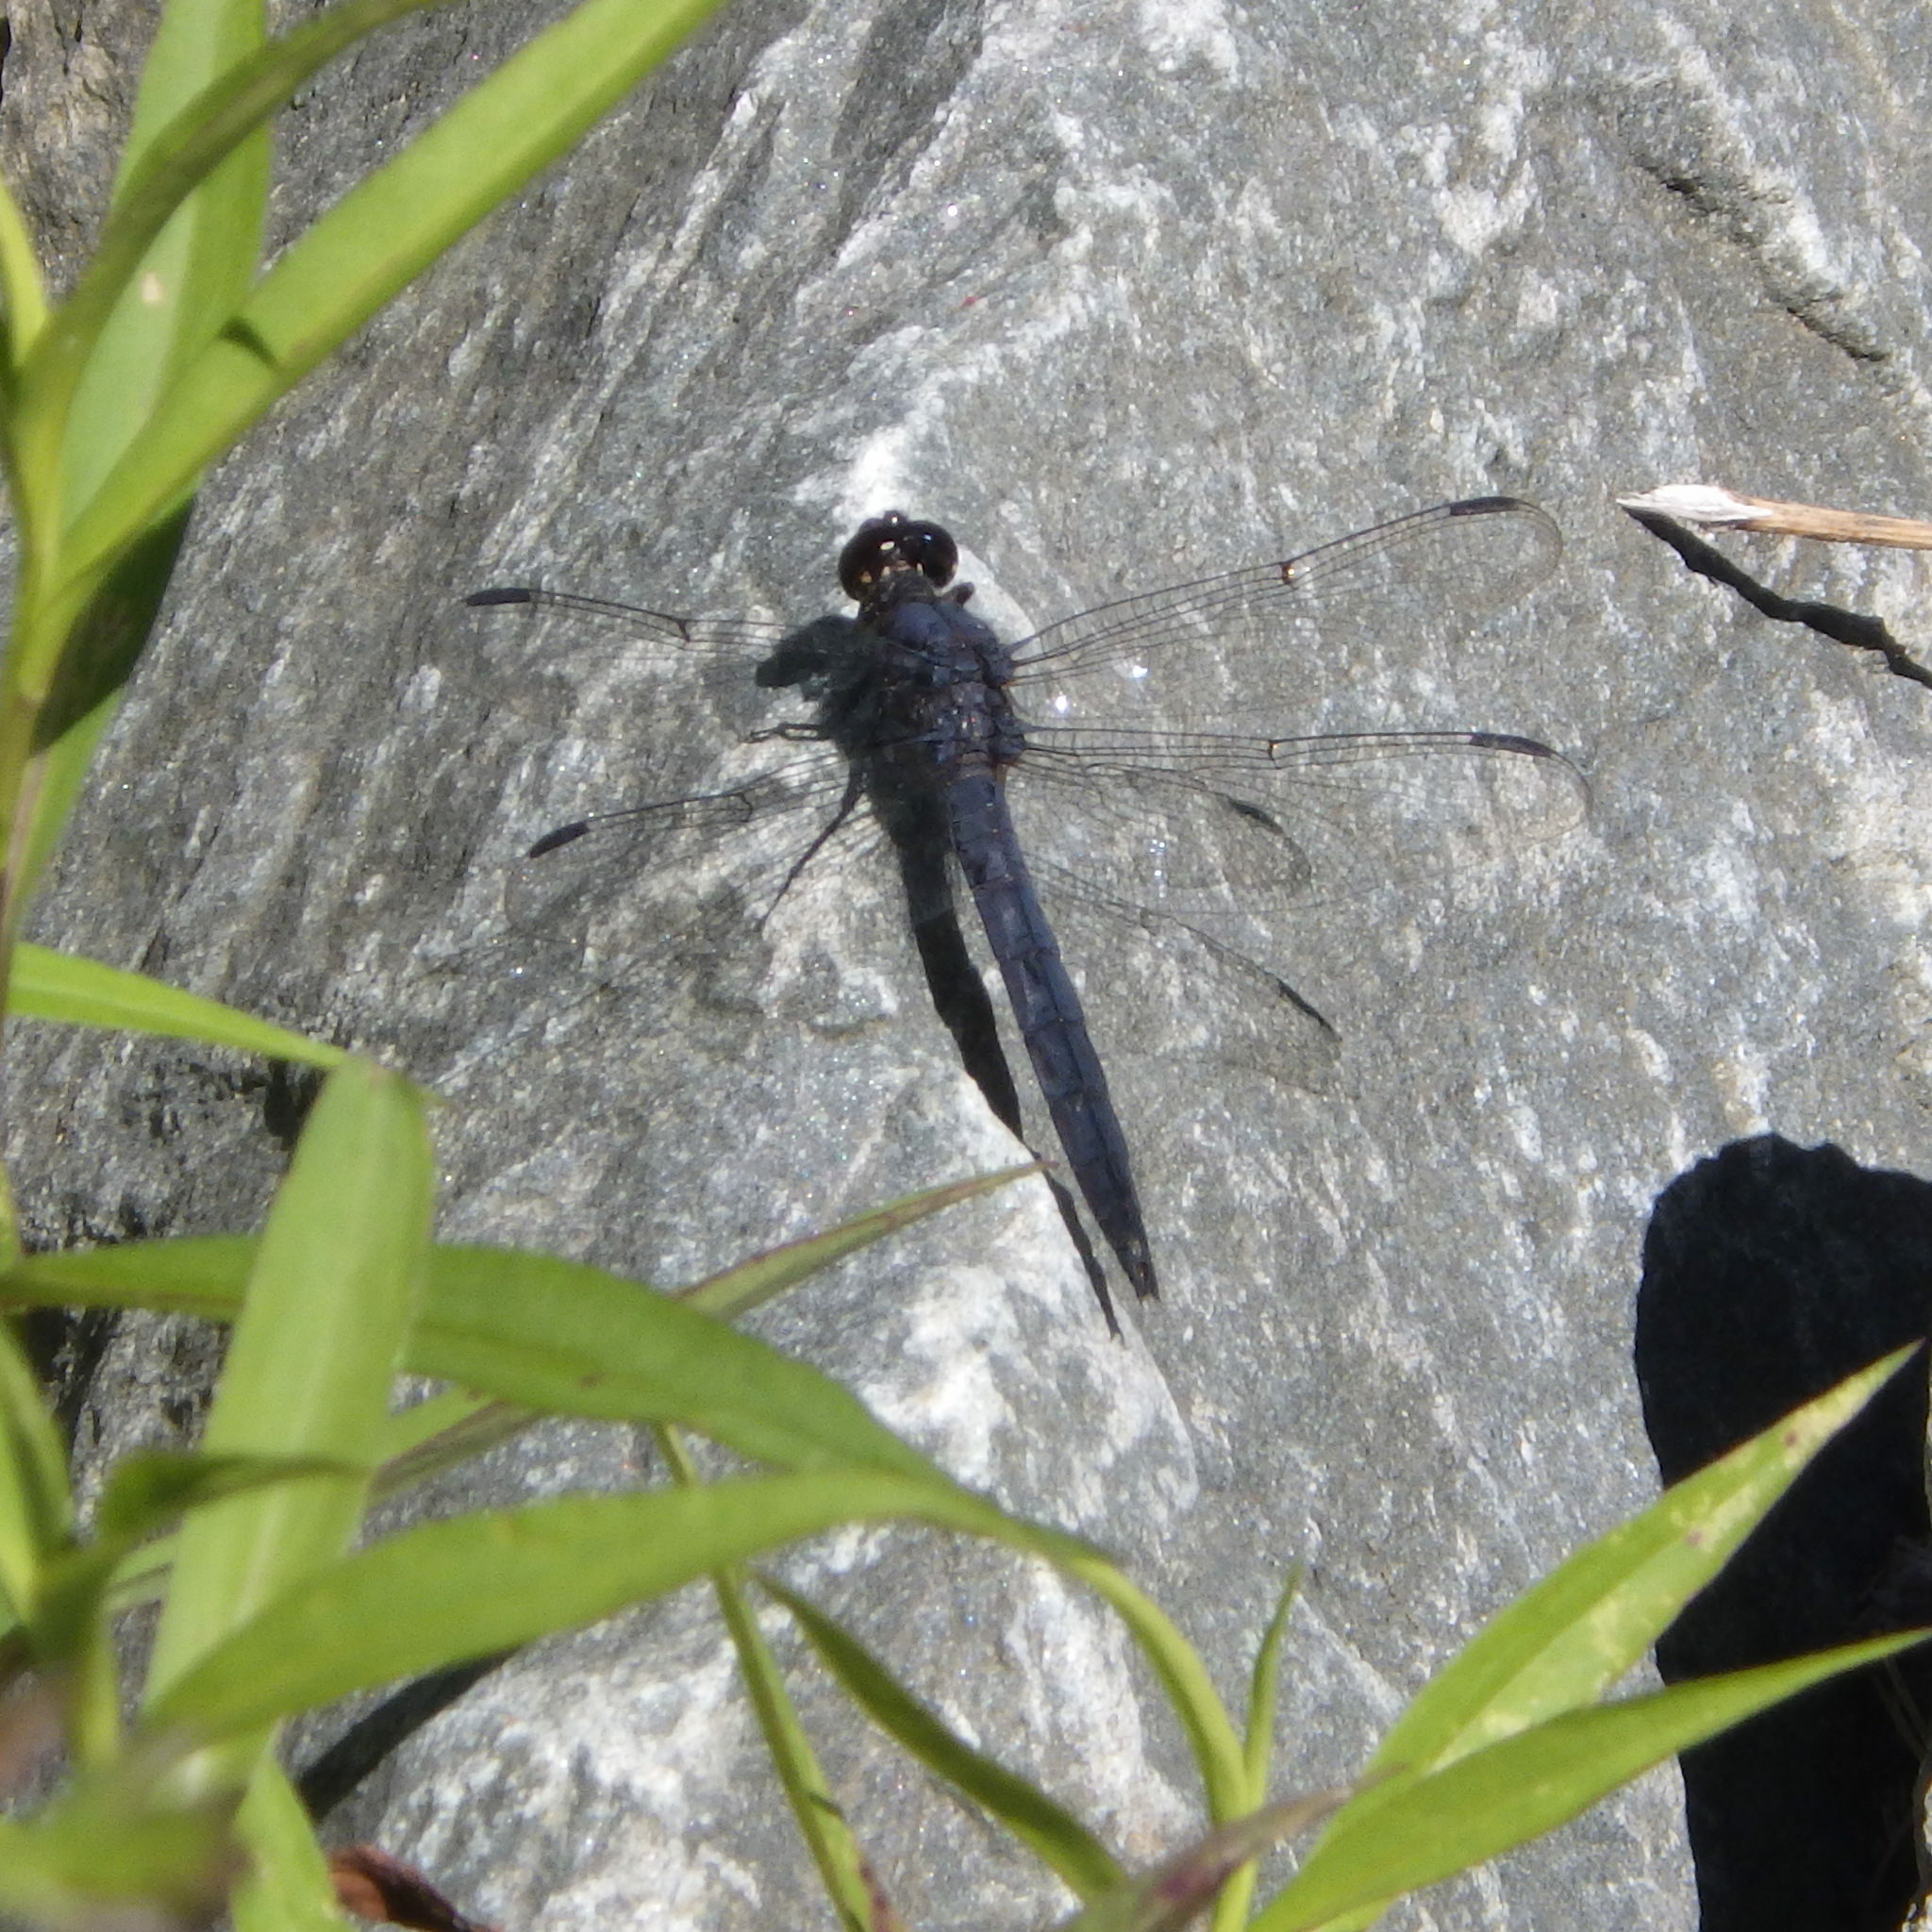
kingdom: Animalia
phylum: Arthropoda
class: Insecta
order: Odonata
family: Libellulidae
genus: Libellula
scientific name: Libellula incesta
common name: Slaty skimmer
